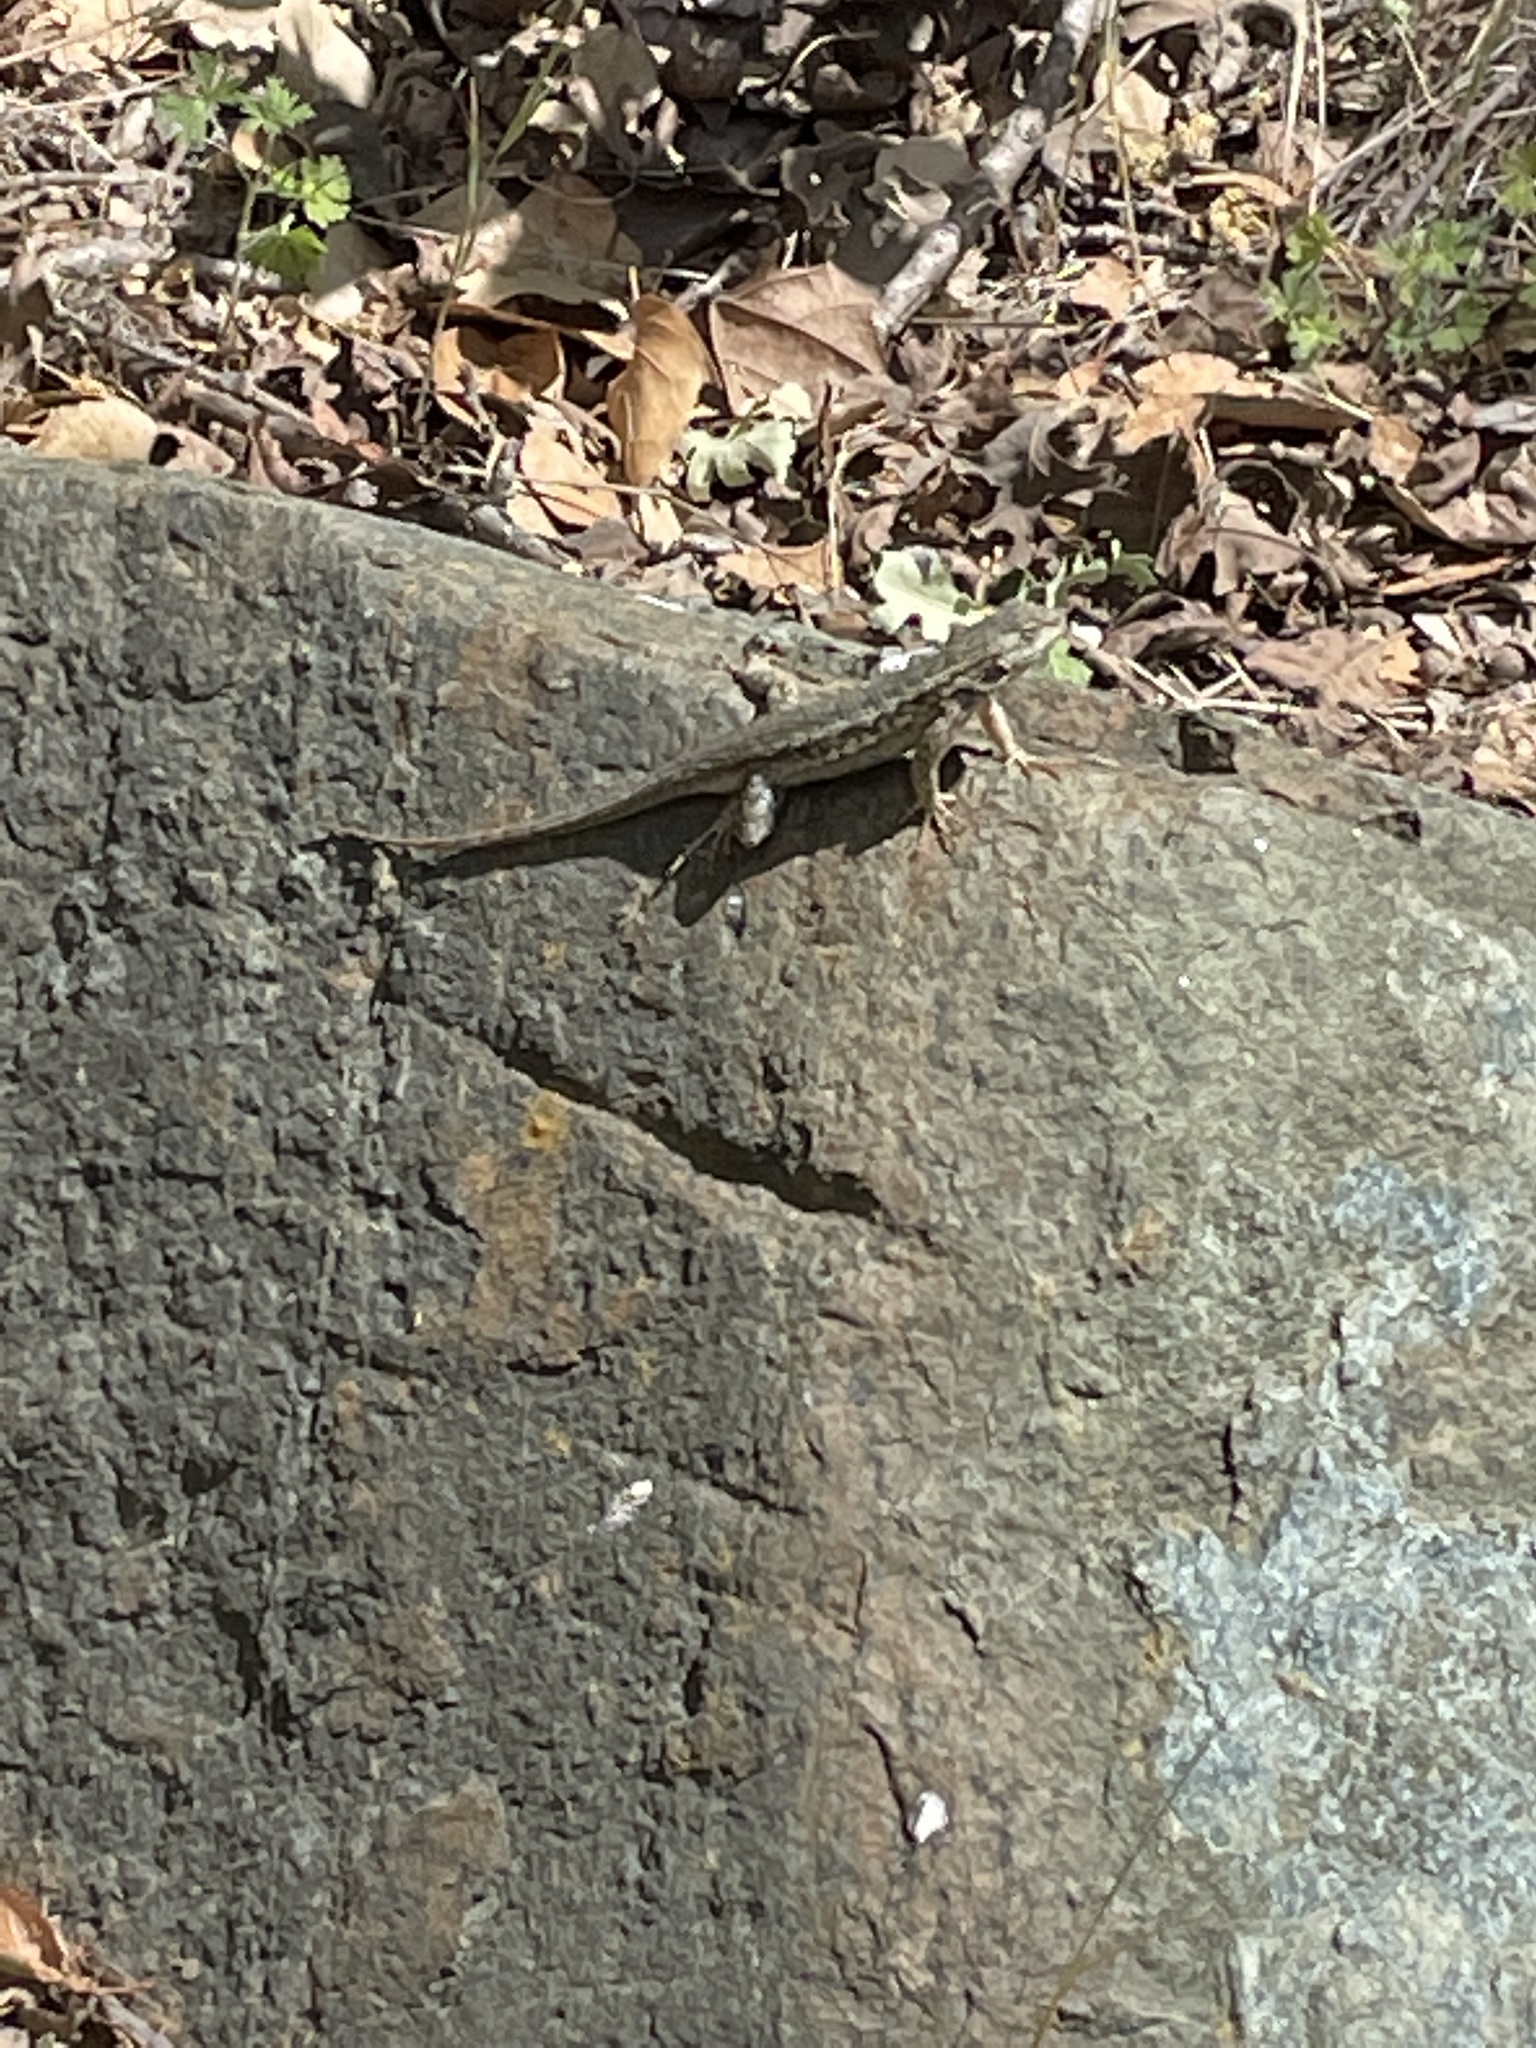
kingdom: Animalia
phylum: Chordata
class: Squamata
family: Phrynosomatidae
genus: Sceloporus
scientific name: Sceloporus occidentalis
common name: Western fence lizard
